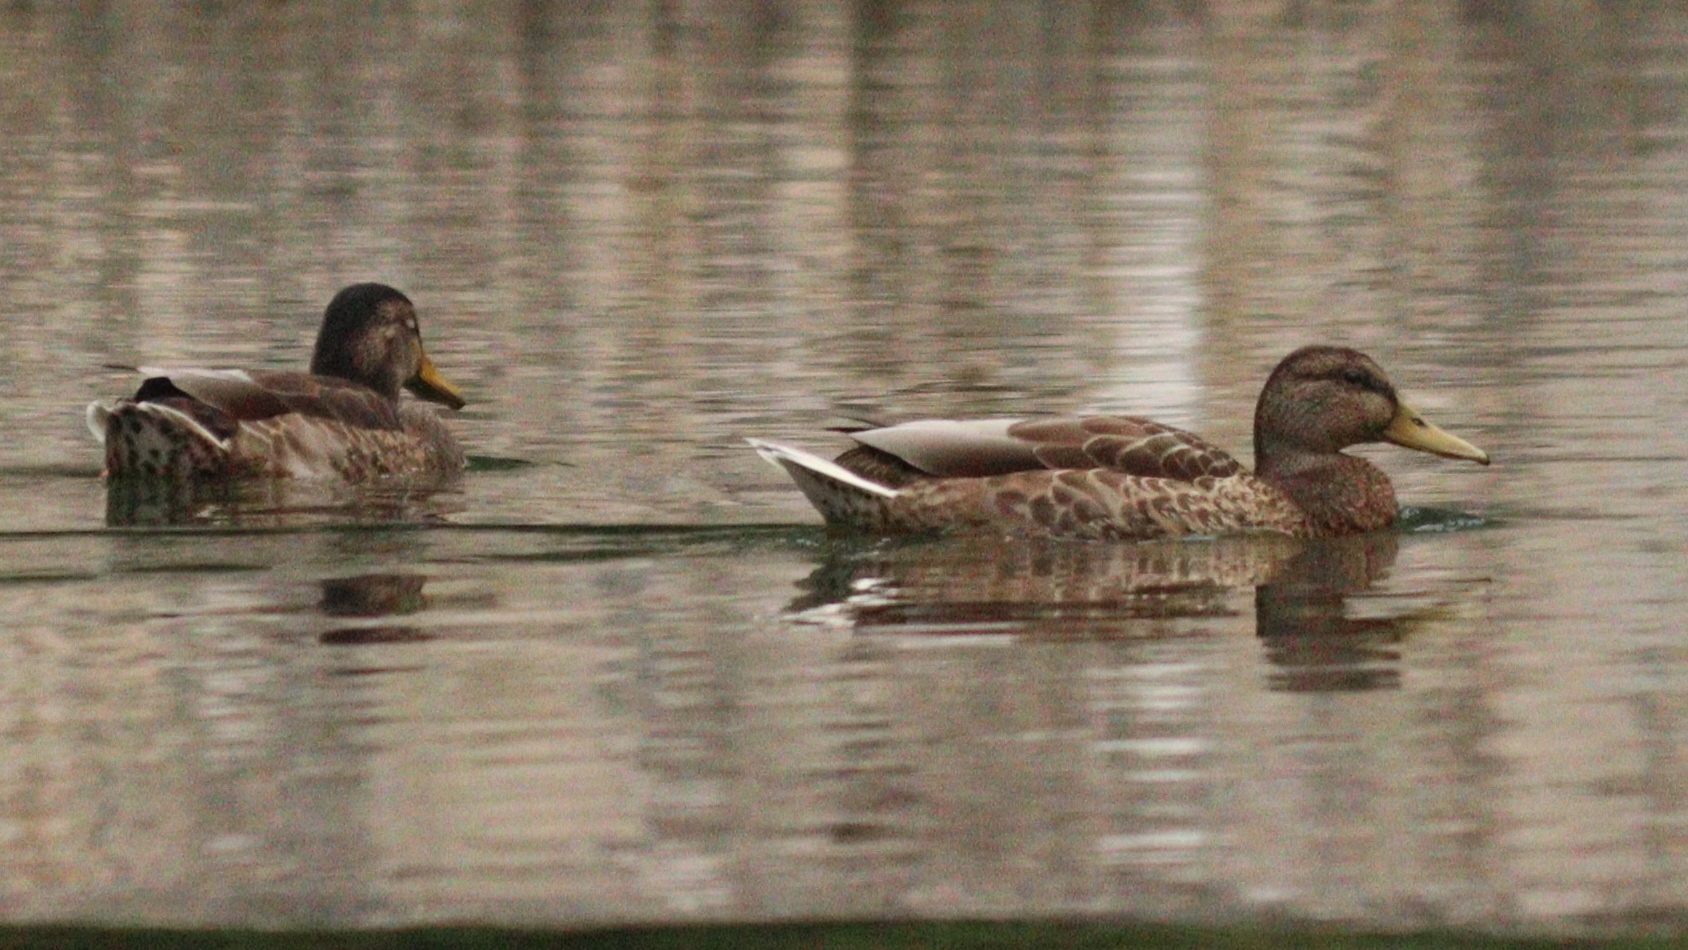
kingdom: Animalia
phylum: Chordata
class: Aves
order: Anseriformes
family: Anatidae
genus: Anas
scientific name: Anas platyrhynchos
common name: Mallard
